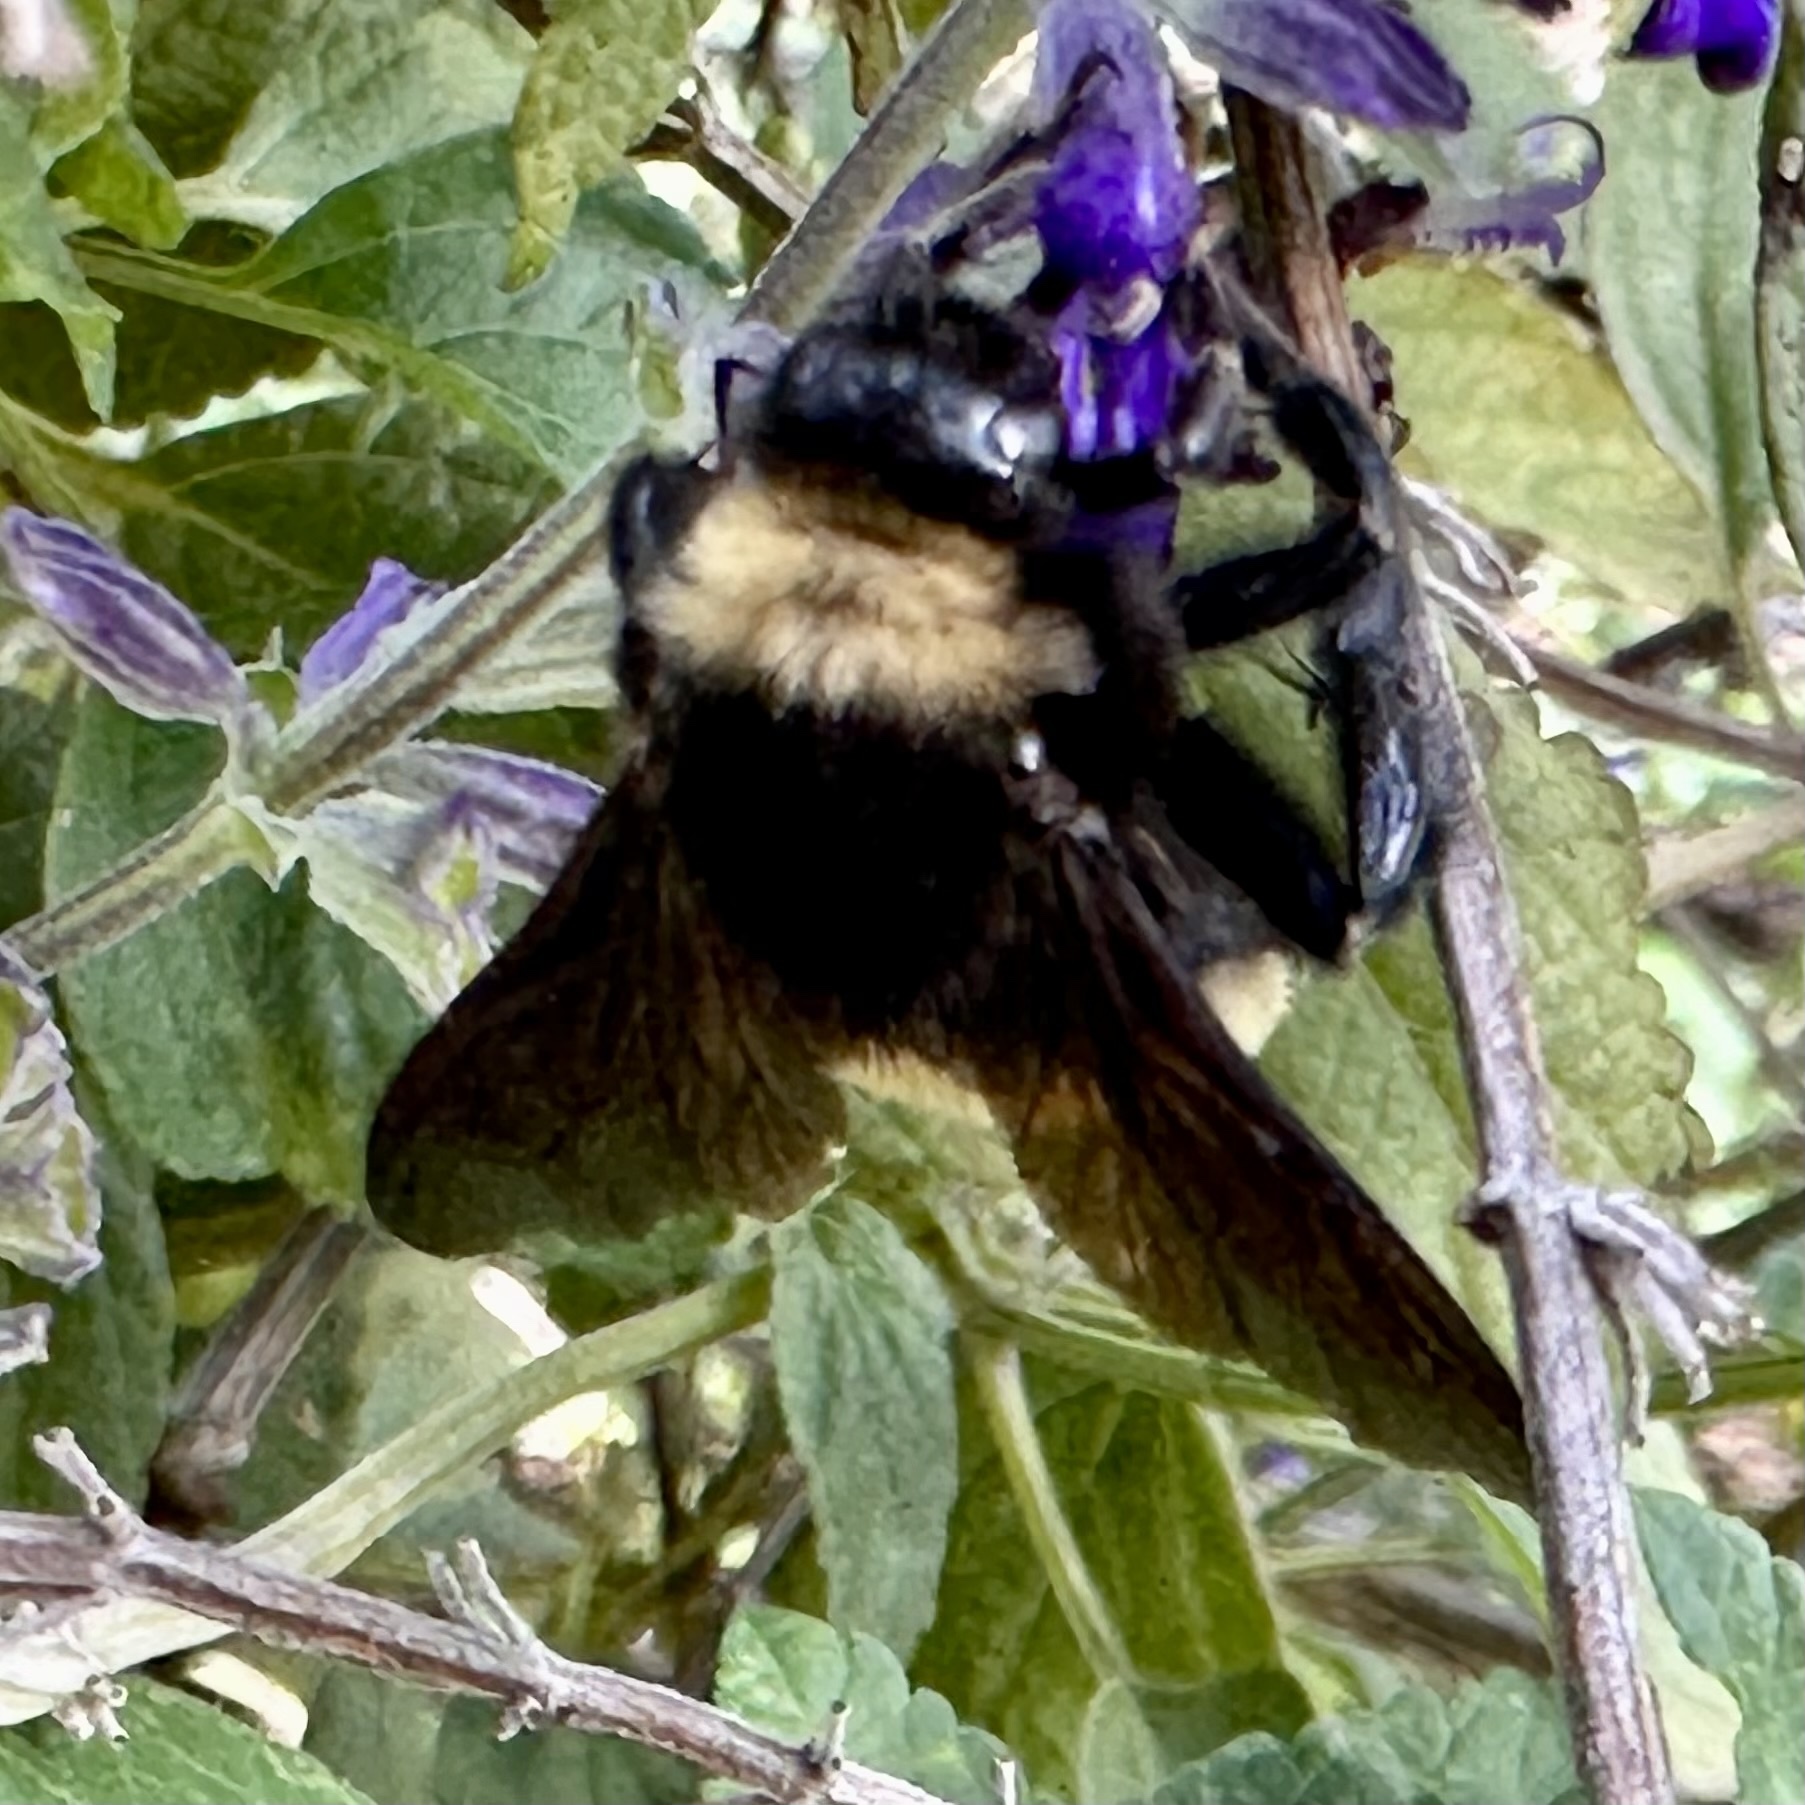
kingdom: Animalia
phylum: Arthropoda
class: Insecta
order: Hymenoptera
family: Apidae
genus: Bombus
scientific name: Bombus pensylvanicus
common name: Bumble bee
